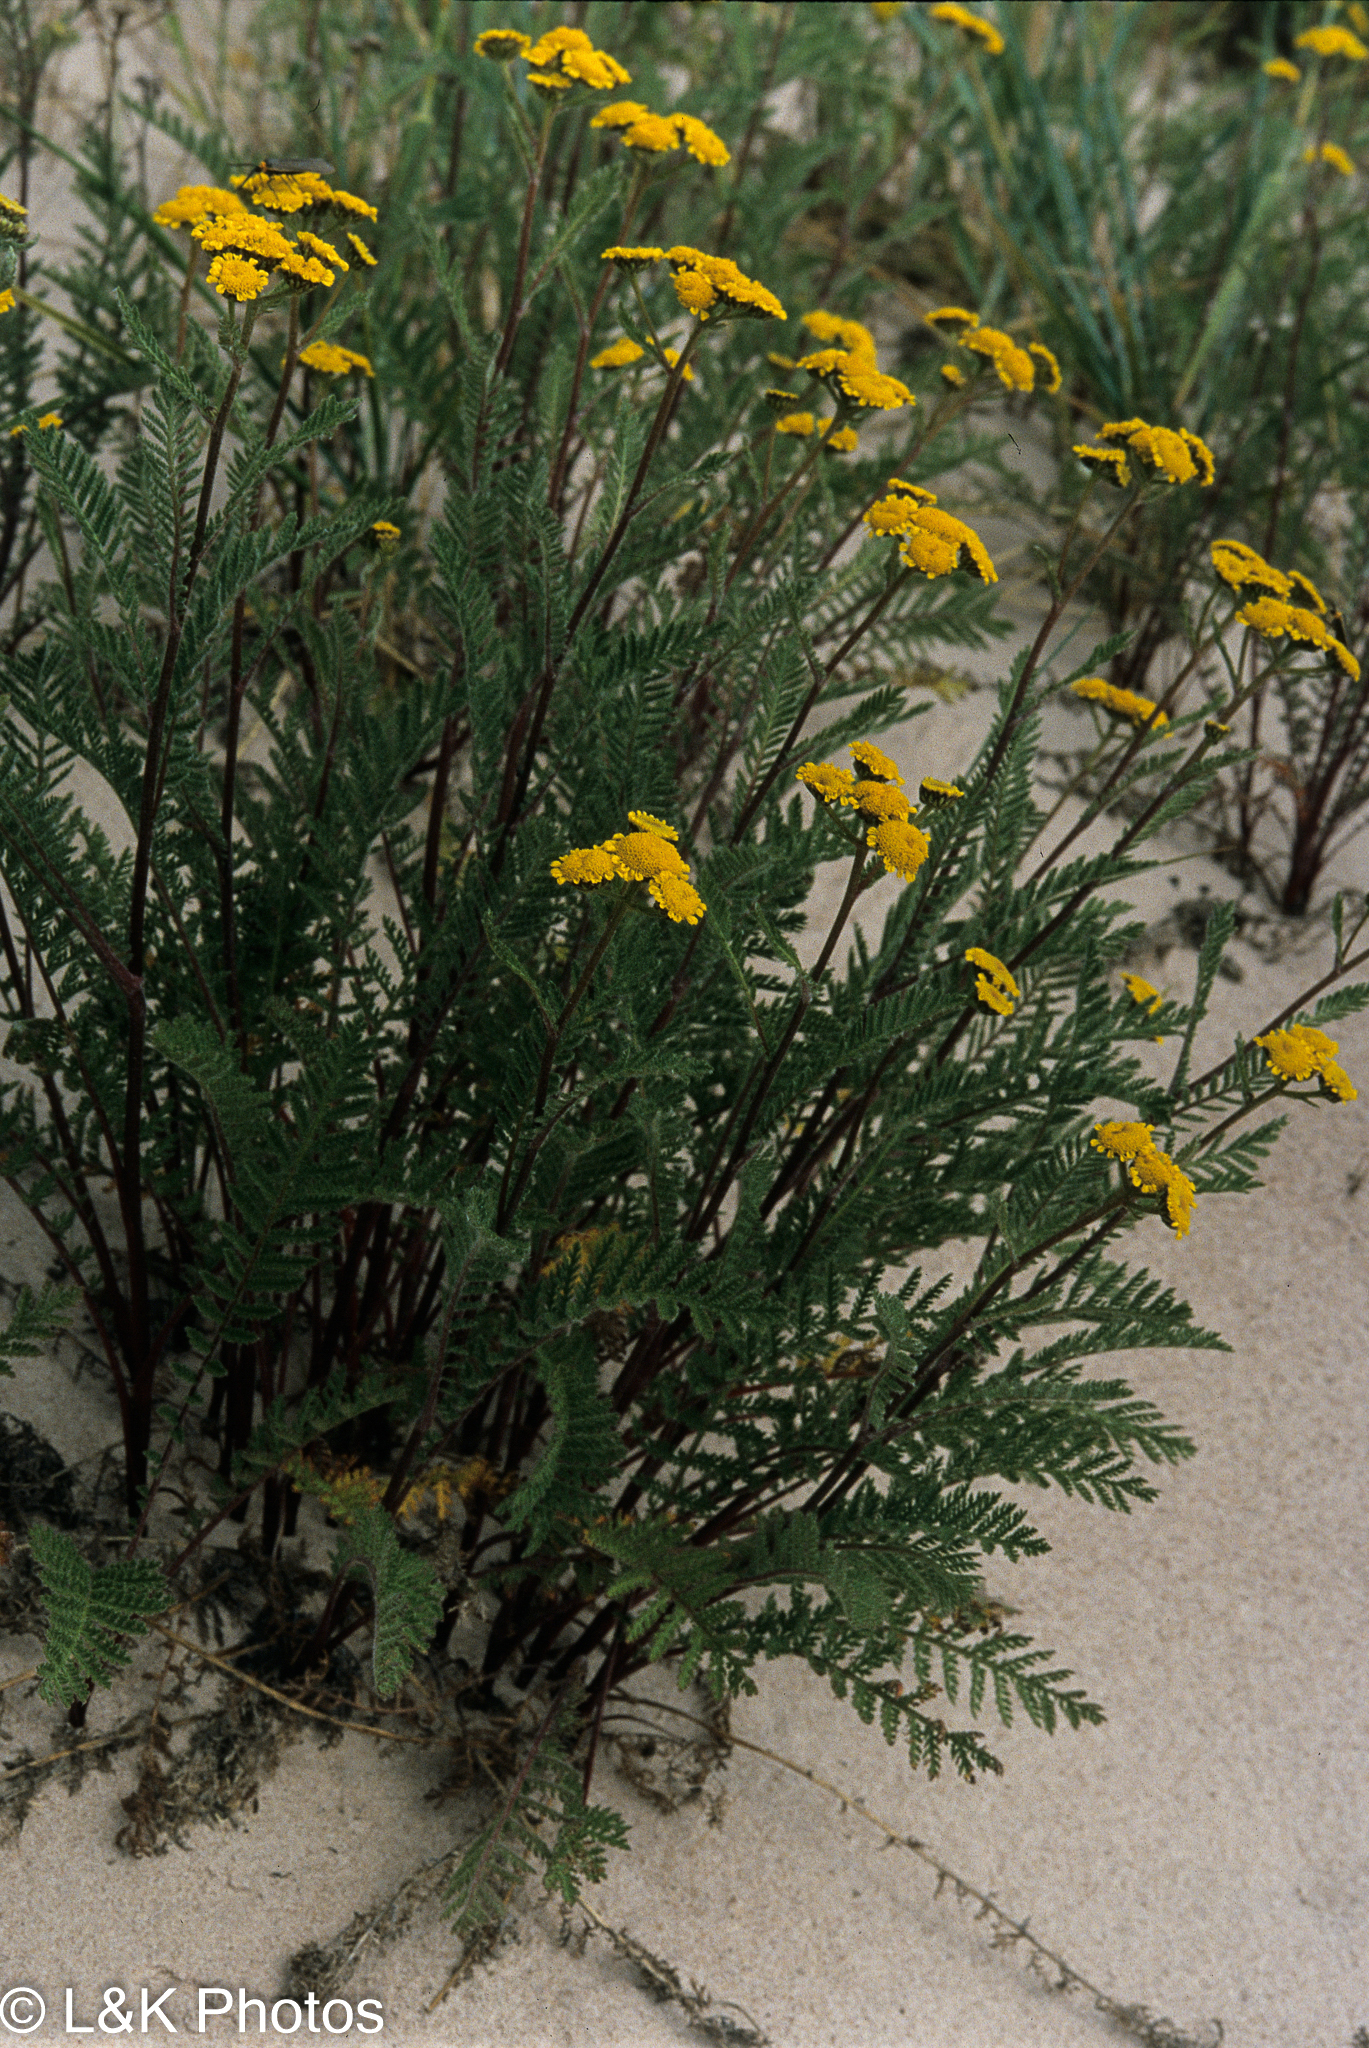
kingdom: Plantae
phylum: Tracheophyta
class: Magnoliopsida
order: Asterales
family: Asteraceae
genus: Tanacetum
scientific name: Tanacetum bipinnatum
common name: Dwarf tansy
